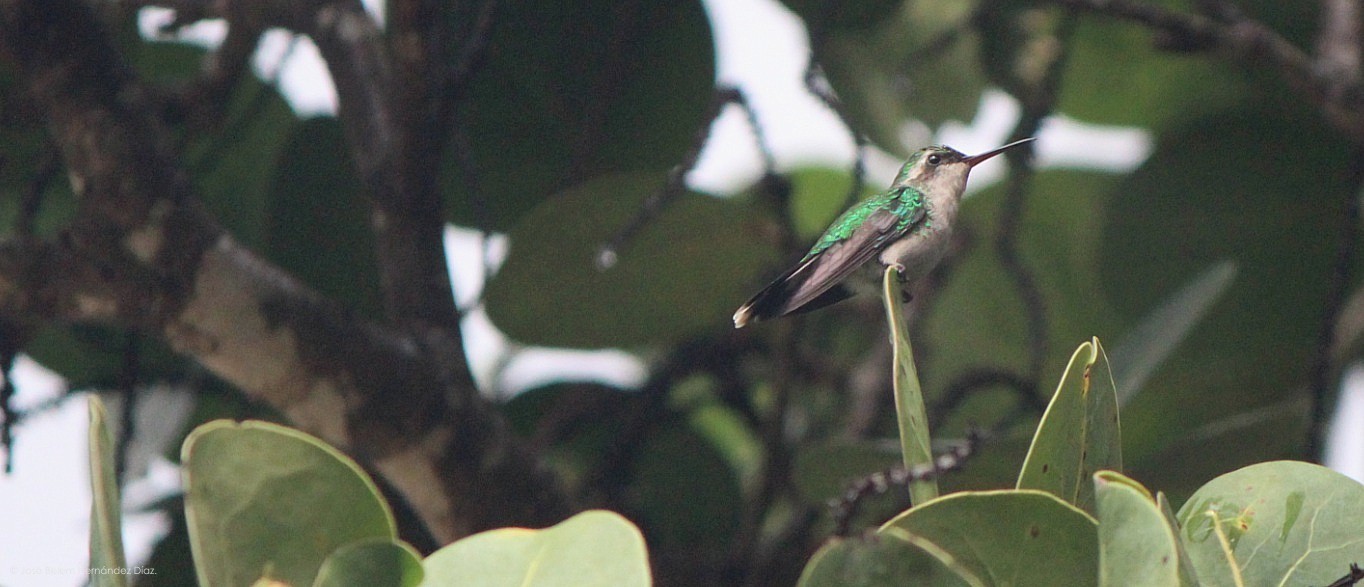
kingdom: Animalia
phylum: Chordata
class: Aves
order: Apodiformes
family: Trochilidae
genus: Cynanthus
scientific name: Cynanthus forficatus
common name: Cozumel emerald
